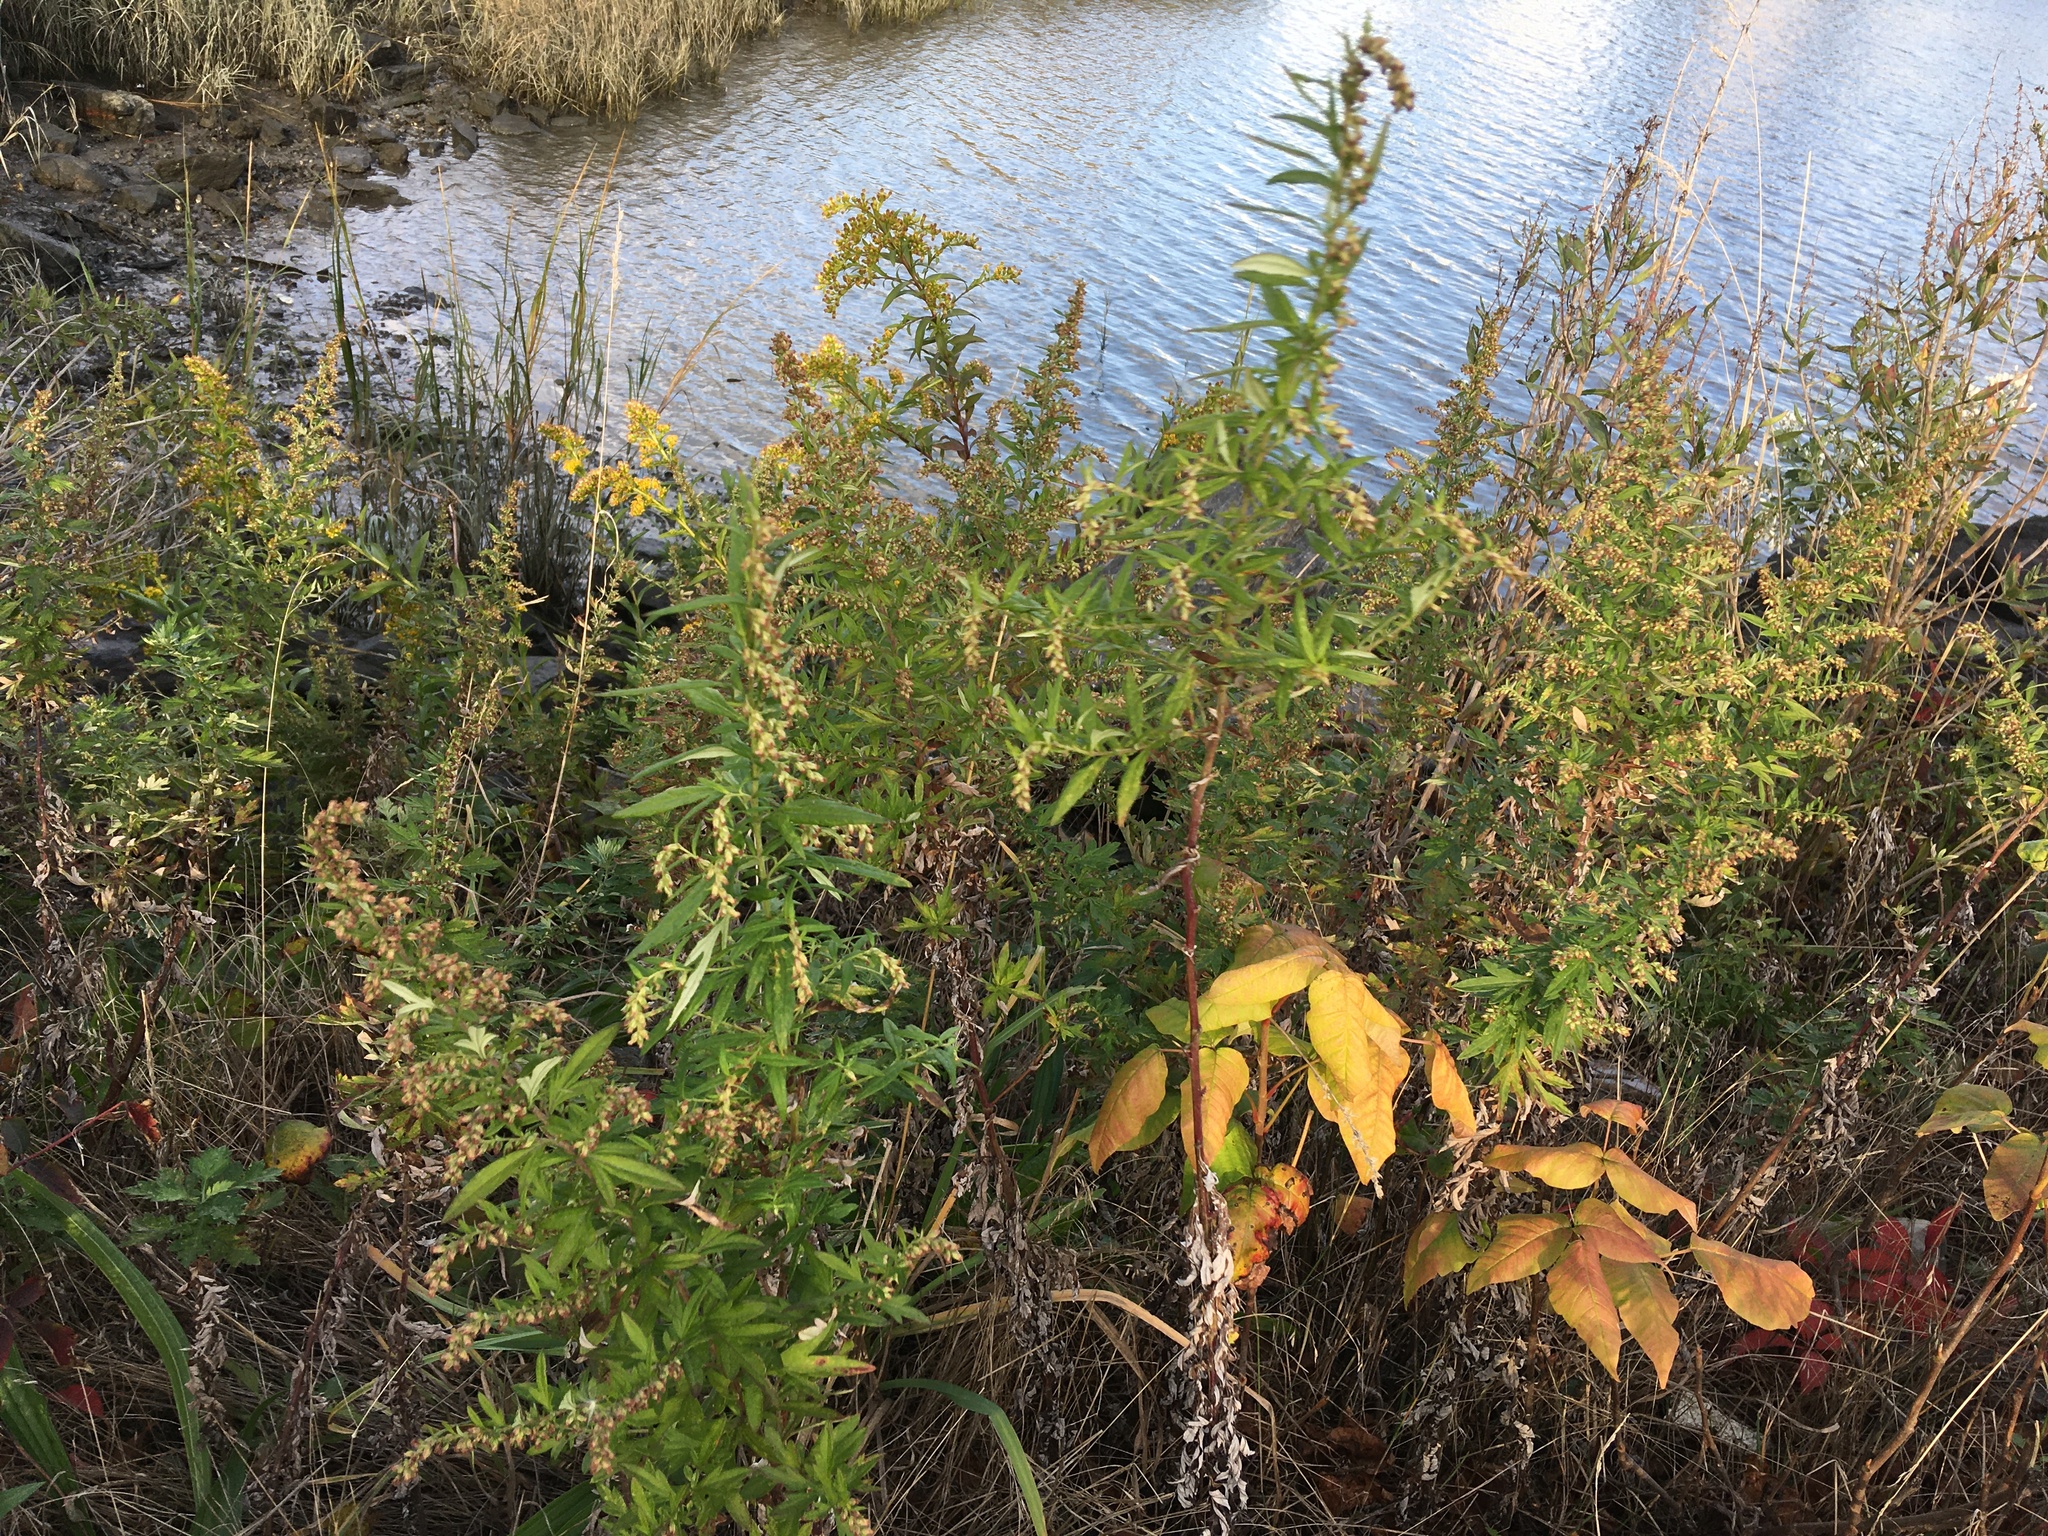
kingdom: Plantae
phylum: Tracheophyta
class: Magnoliopsida
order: Asterales
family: Asteraceae
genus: Artemisia
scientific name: Artemisia vulgaris
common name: Mugwort
